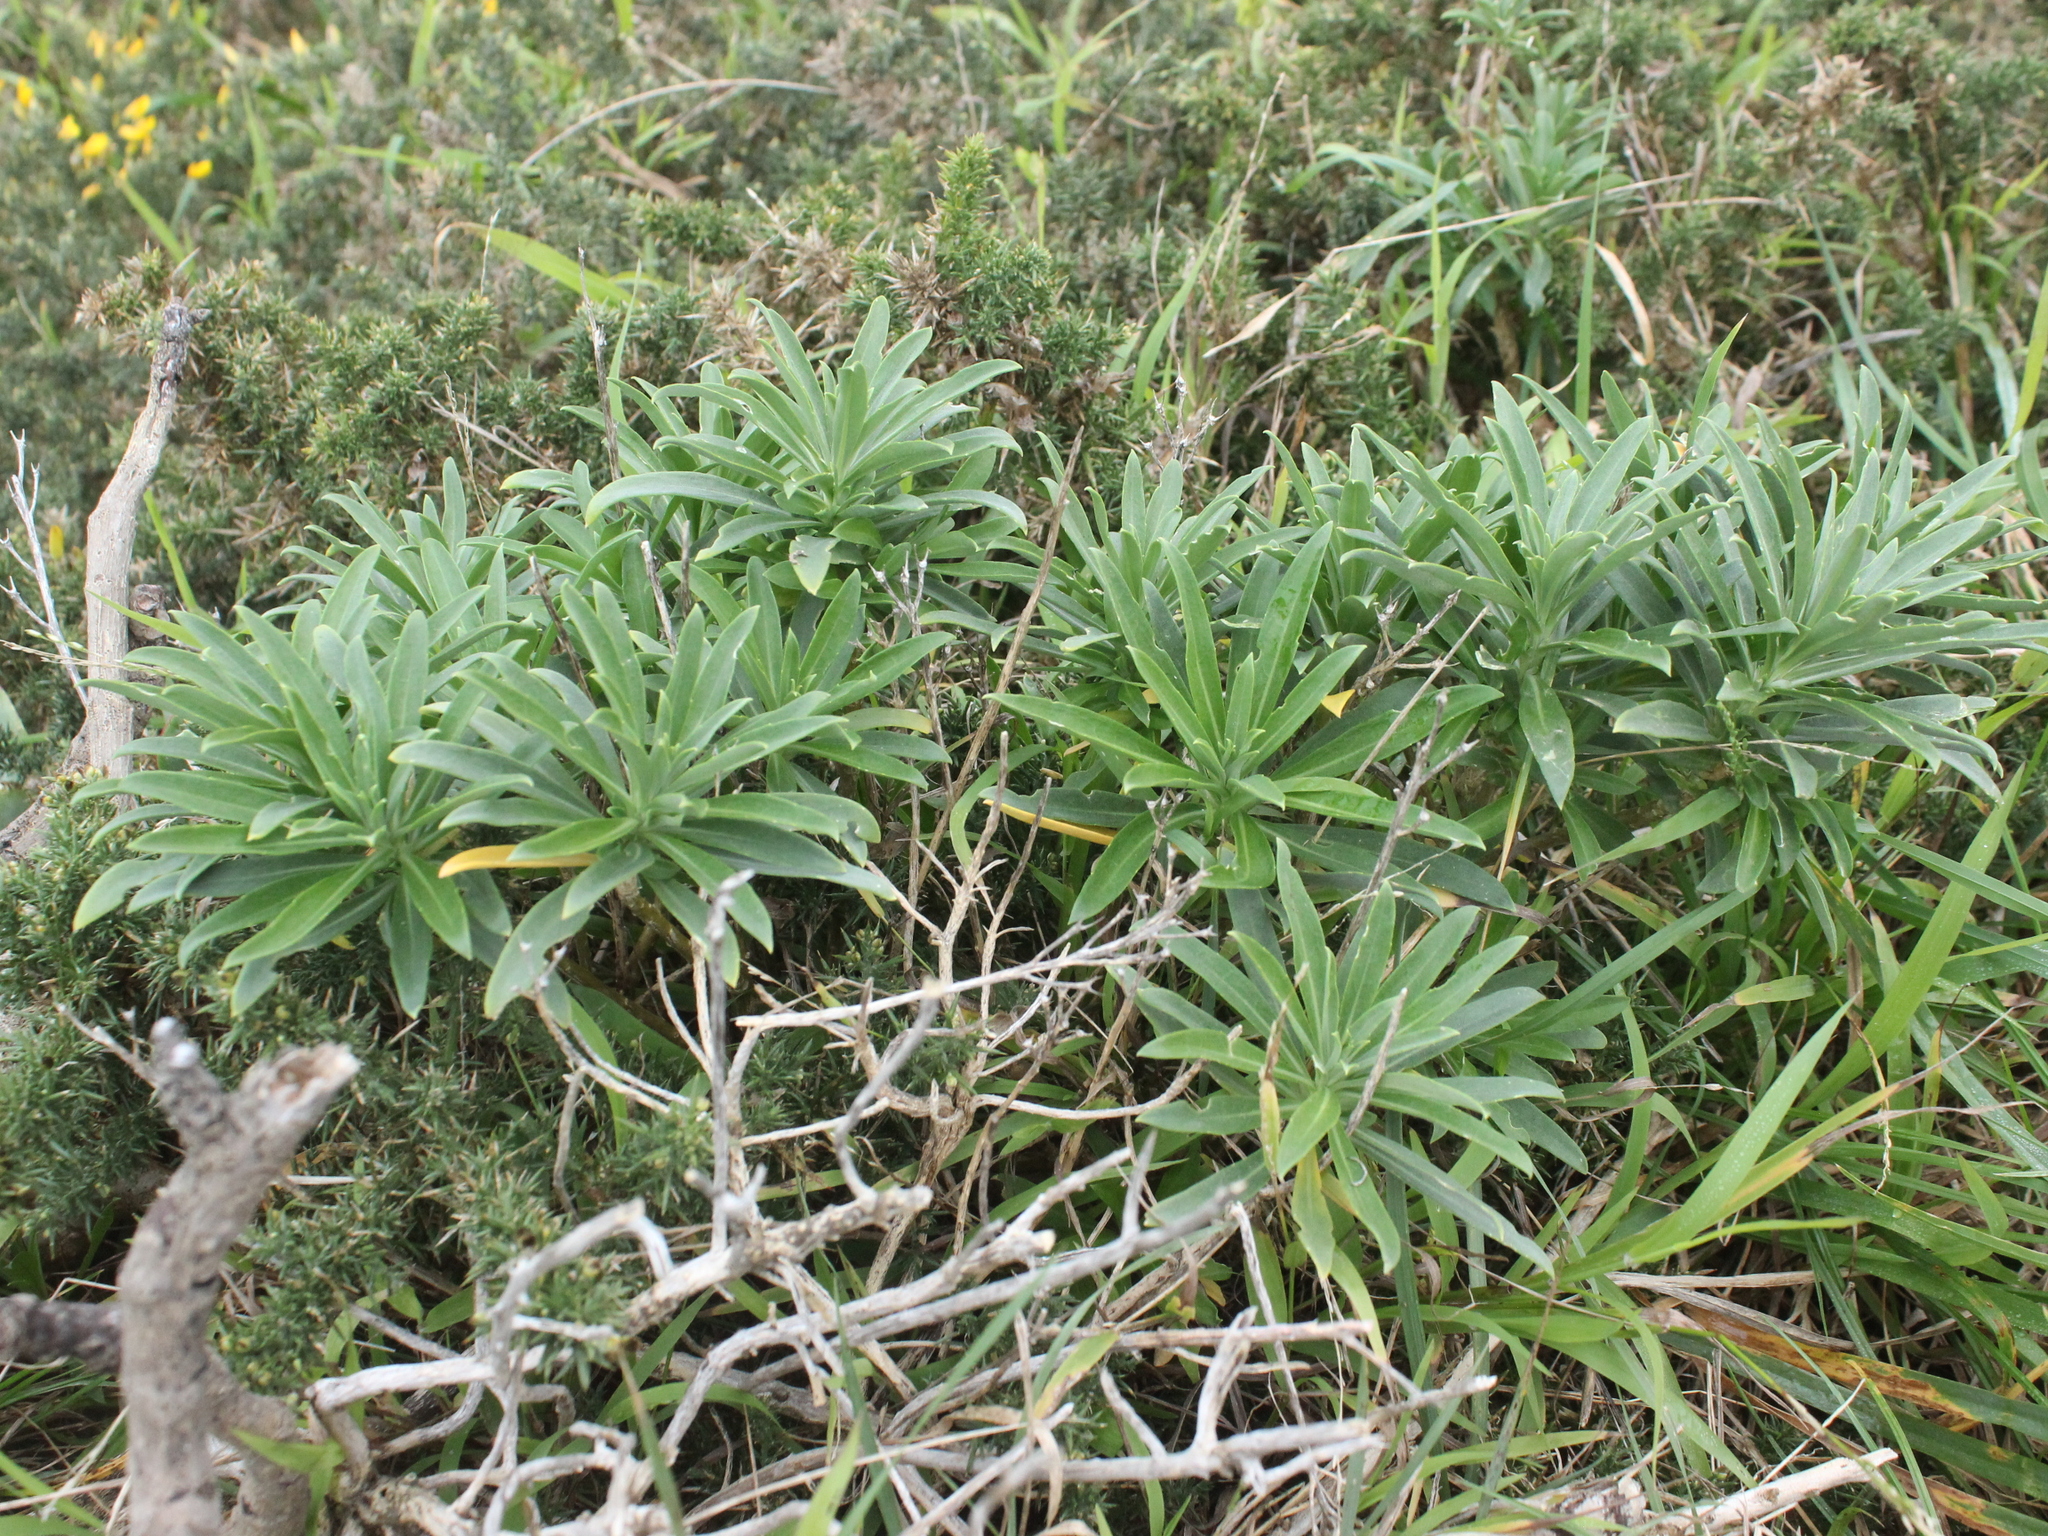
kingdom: Plantae
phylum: Tracheophyta
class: Magnoliopsida
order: Brassicales
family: Brassicaceae
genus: Erysimum
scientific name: Erysimum cheiri
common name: Wallflower
